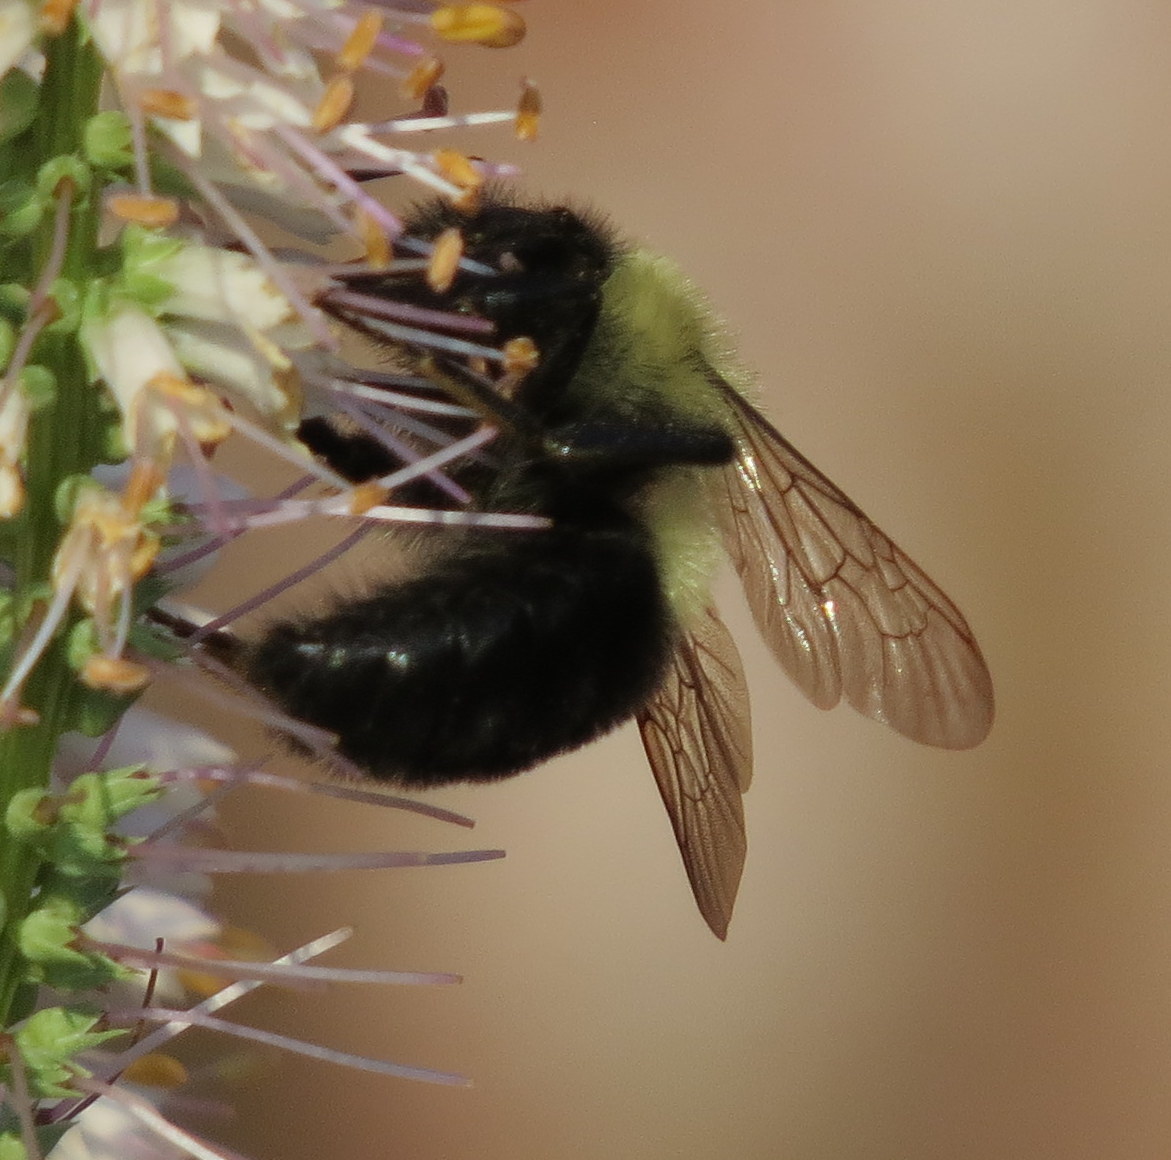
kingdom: Animalia
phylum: Arthropoda
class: Insecta
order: Hymenoptera
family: Apidae
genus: Bombus
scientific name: Bombus impatiens
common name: Common eastern bumble bee
